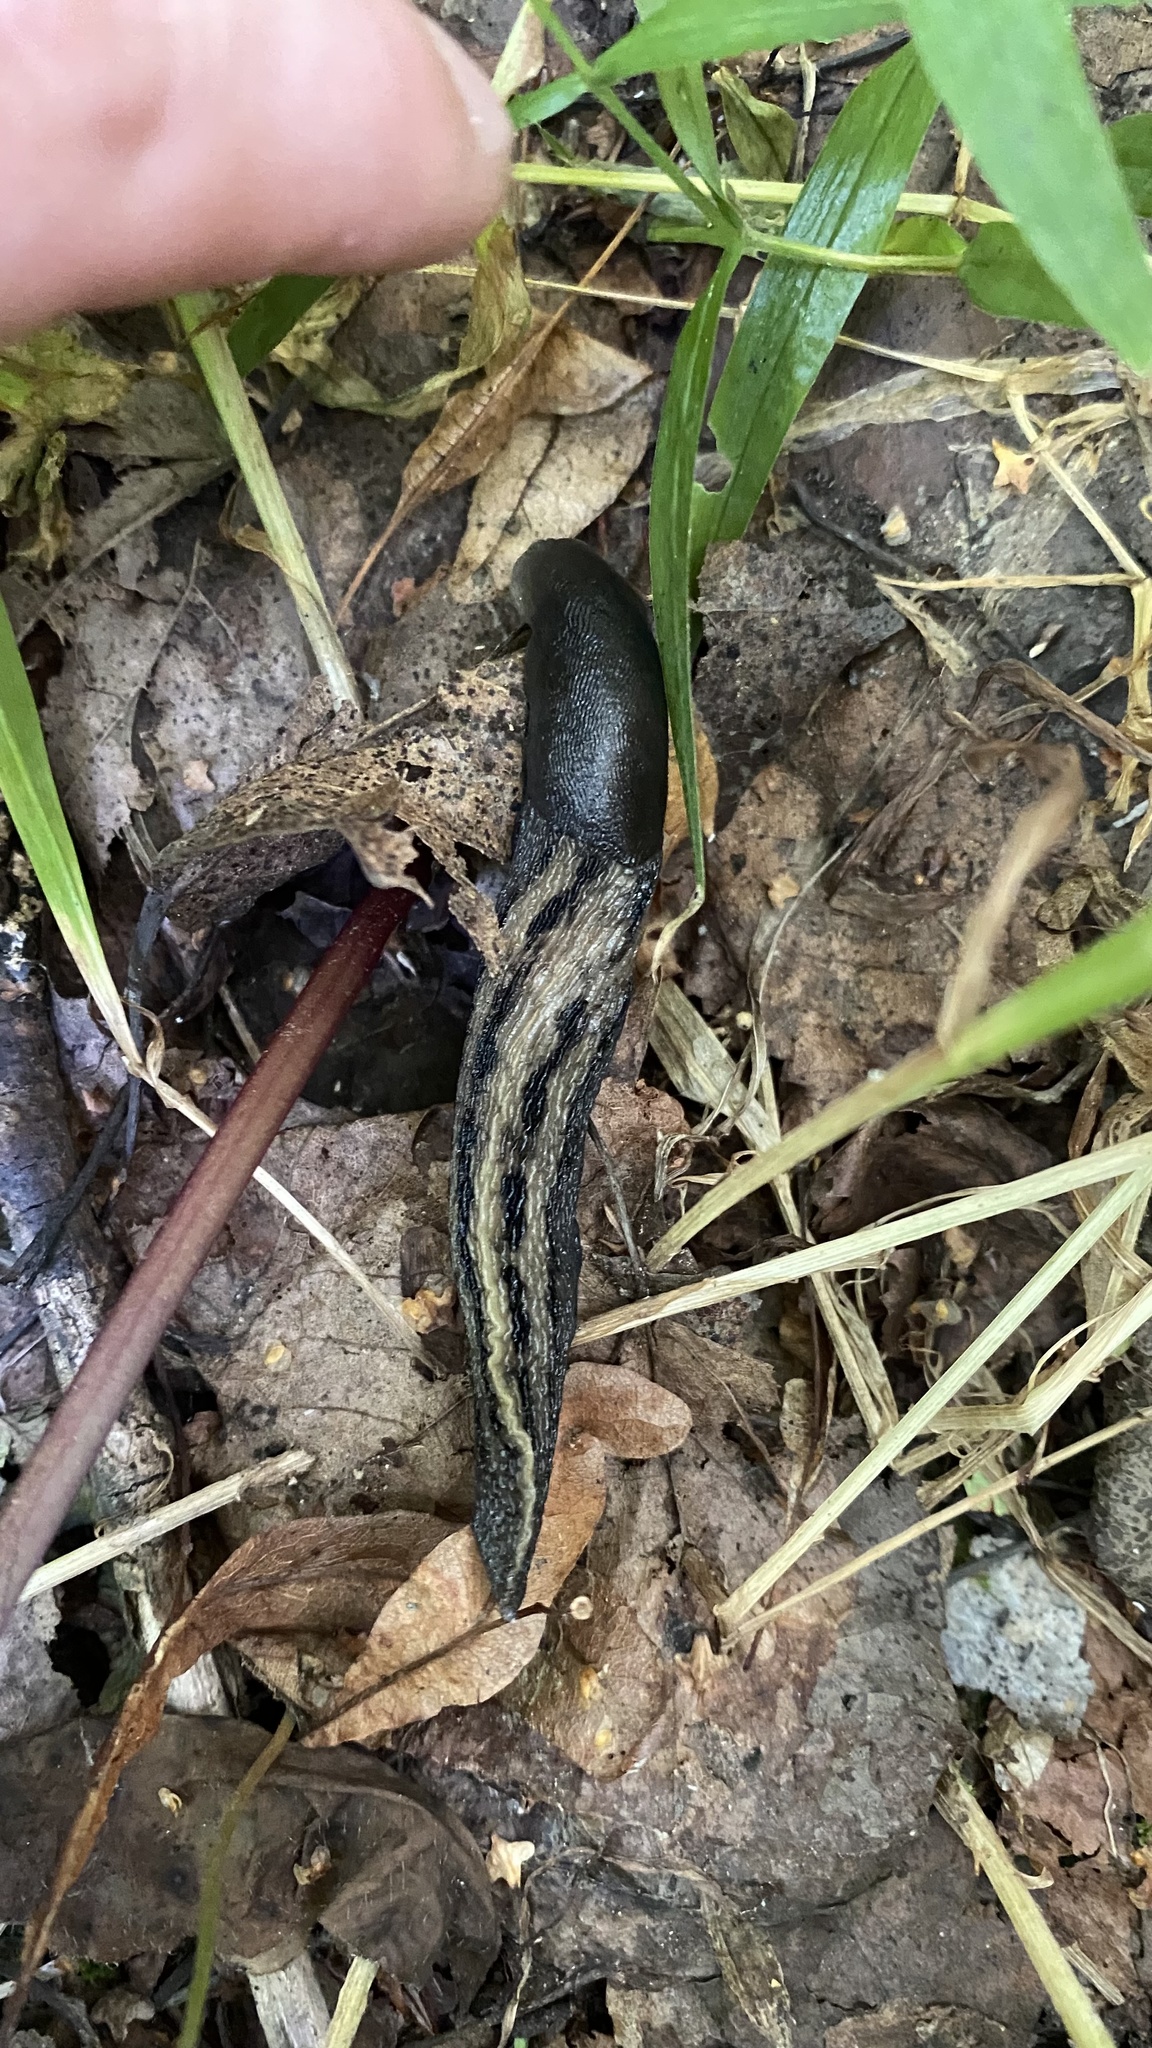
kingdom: Animalia
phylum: Mollusca
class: Gastropoda
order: Stylommatophora
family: Limacidae
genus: Limax
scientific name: Limax cinereoniger
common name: Ash-black slug
